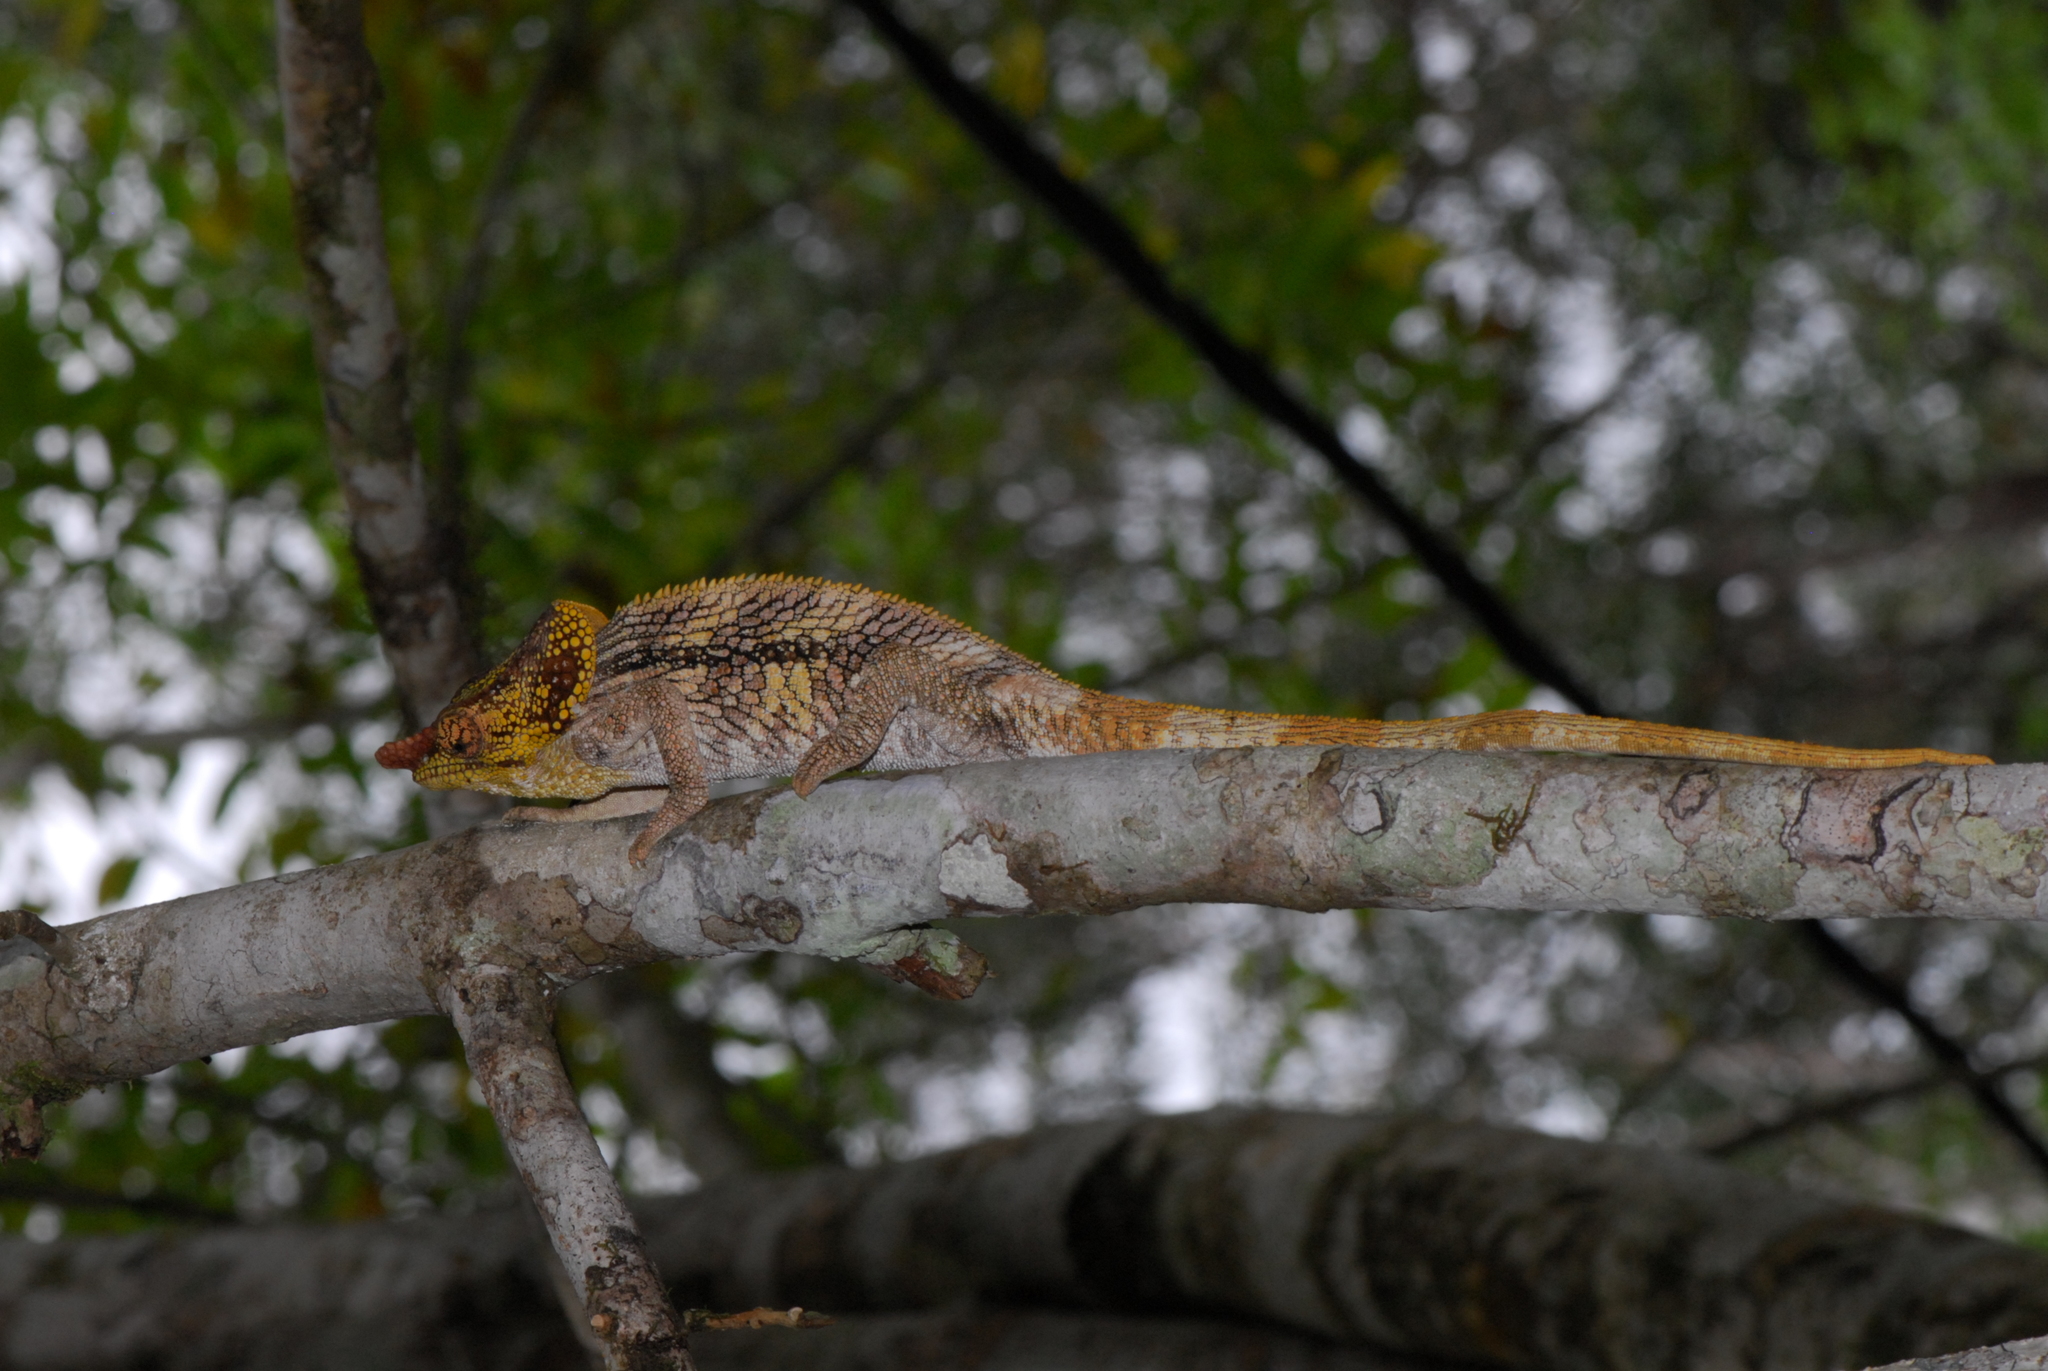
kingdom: Animalia
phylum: Chordata
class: Squamata
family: Chamaeleonidae
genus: Calumma
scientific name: Calumma brevicorne
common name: Short-horned chameleon
